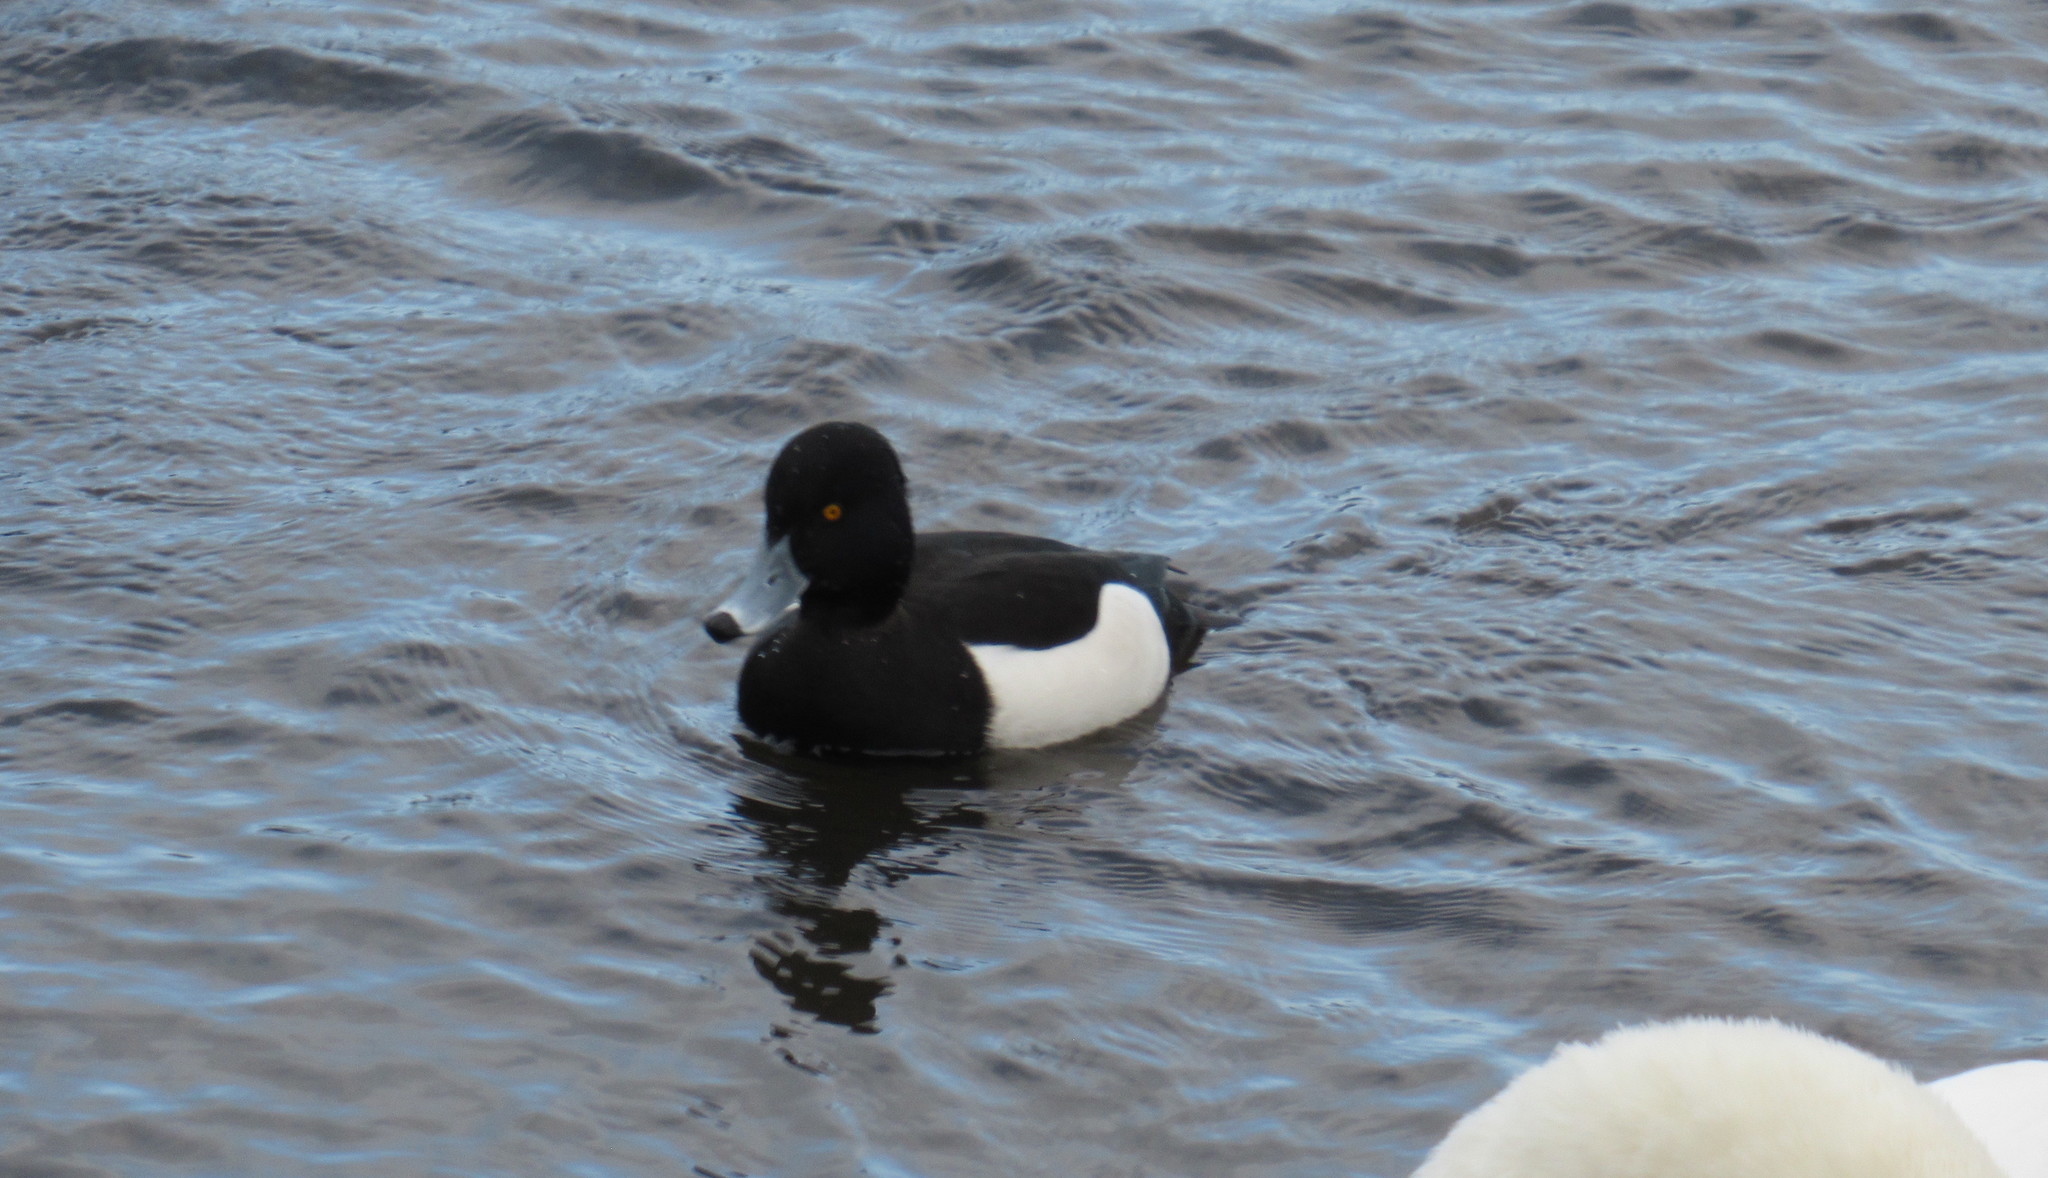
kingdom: Animalia
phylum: Chordata
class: Aves
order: Anseriformes
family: Anatidae
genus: Aythya
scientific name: Aythya fuligula
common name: Tufted duck
